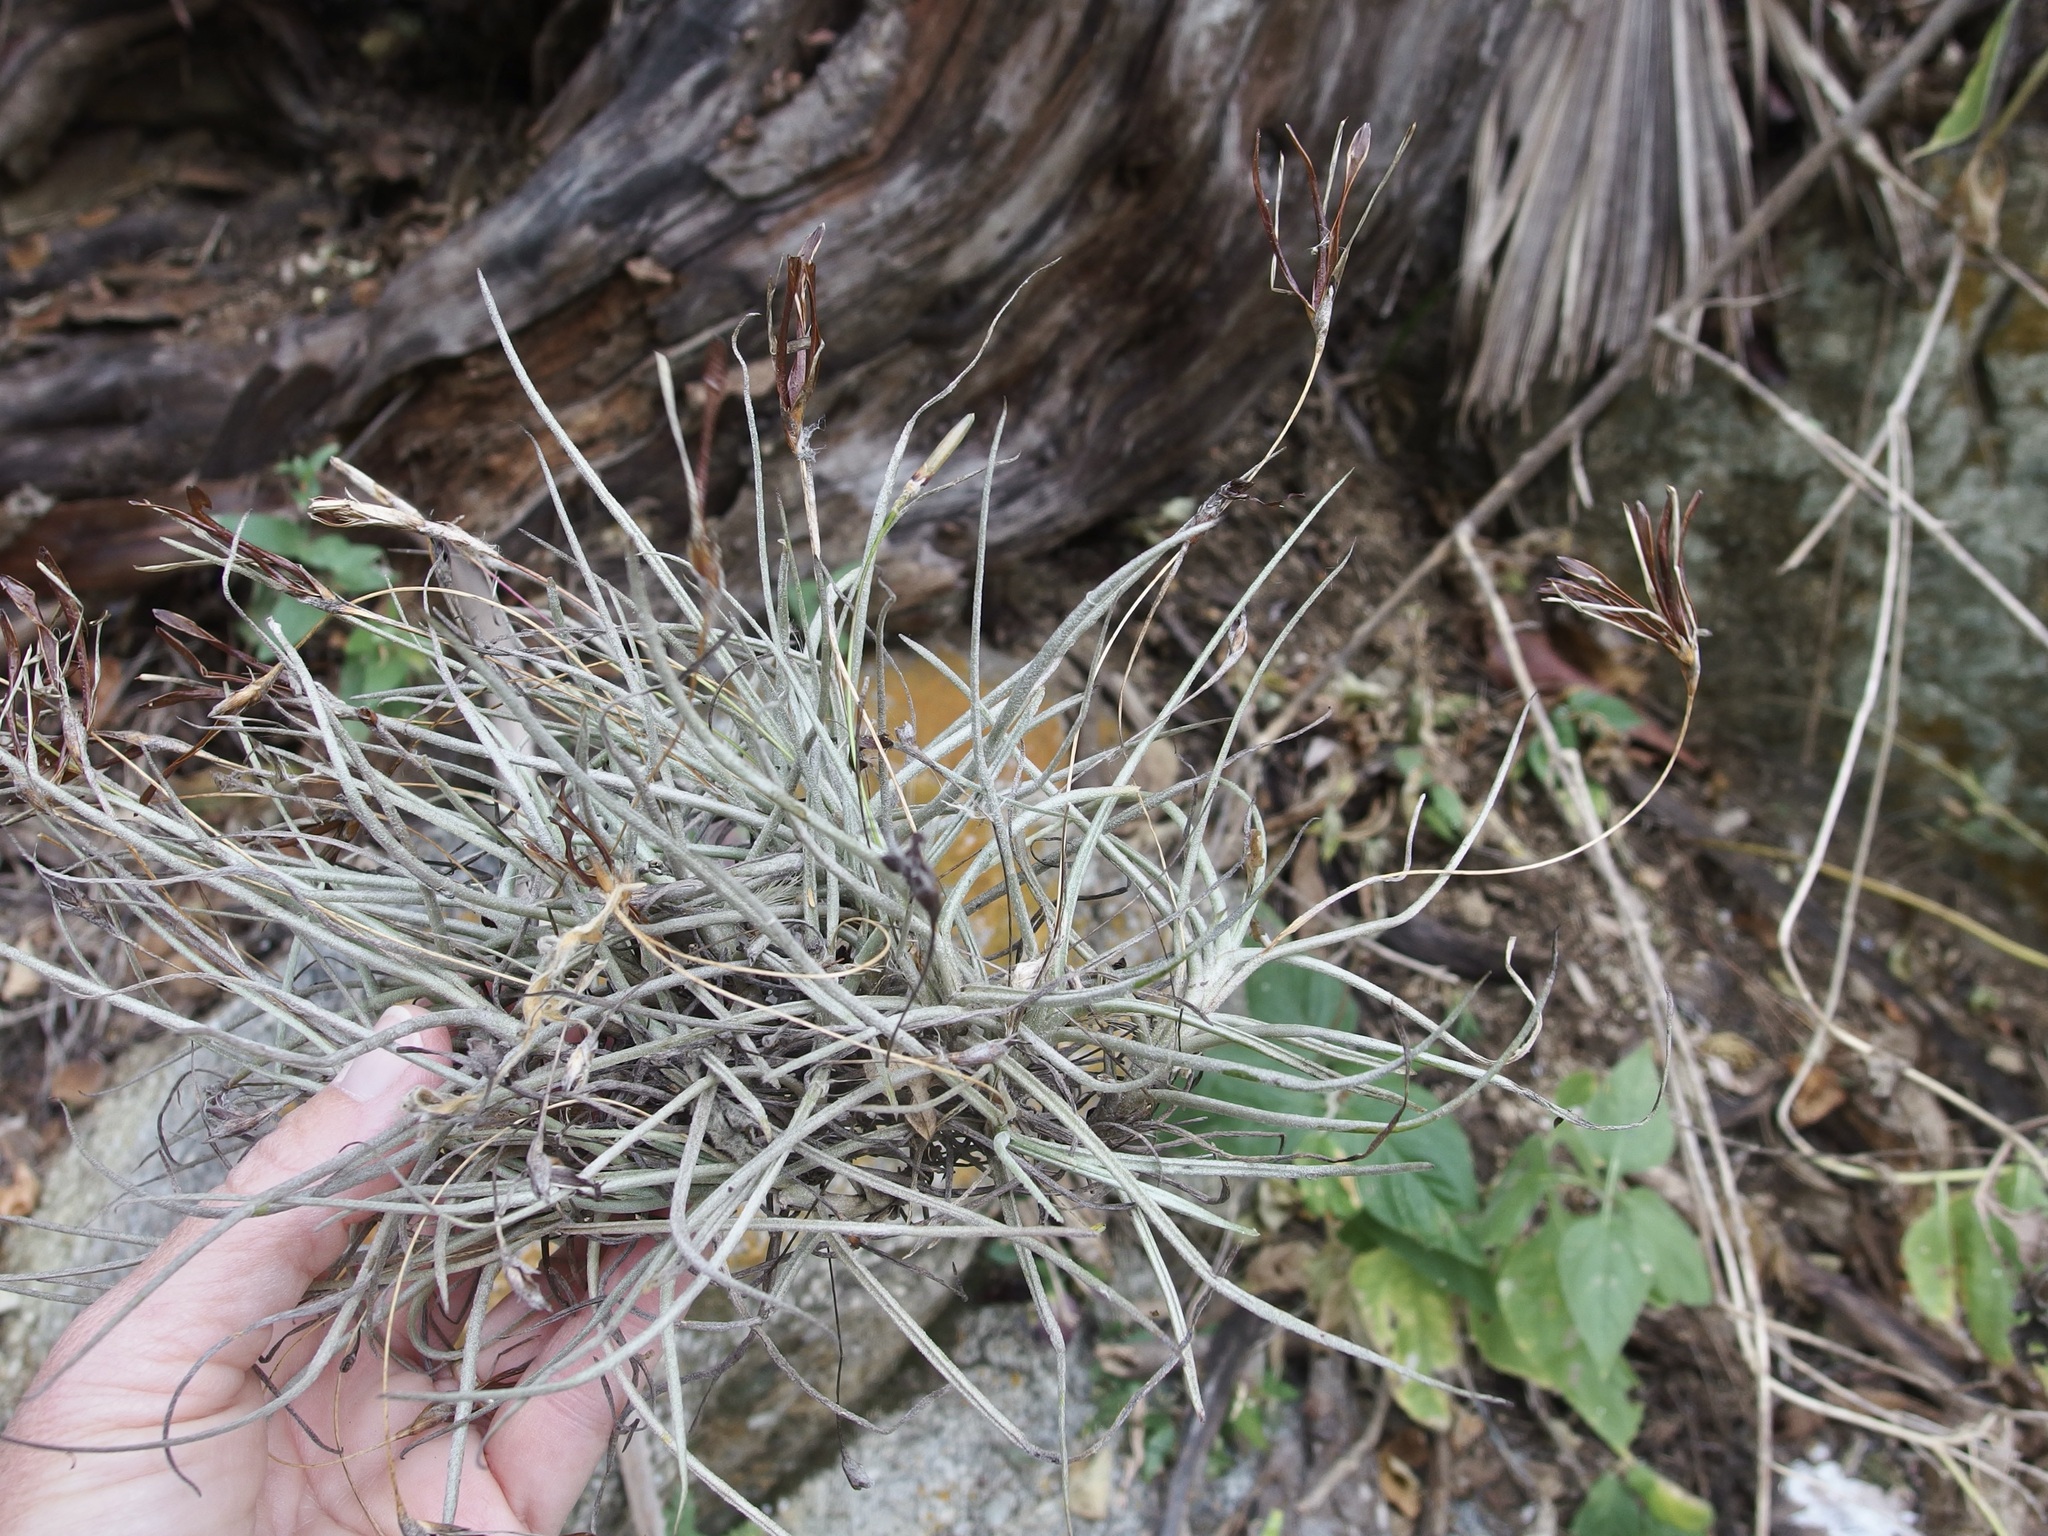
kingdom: Plantae
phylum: Tracheophyta
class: Liliopsida
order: Poales
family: Bromeliaceae
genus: Tillandsia
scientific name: Tillandsia recurvata
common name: Small ballmoss
